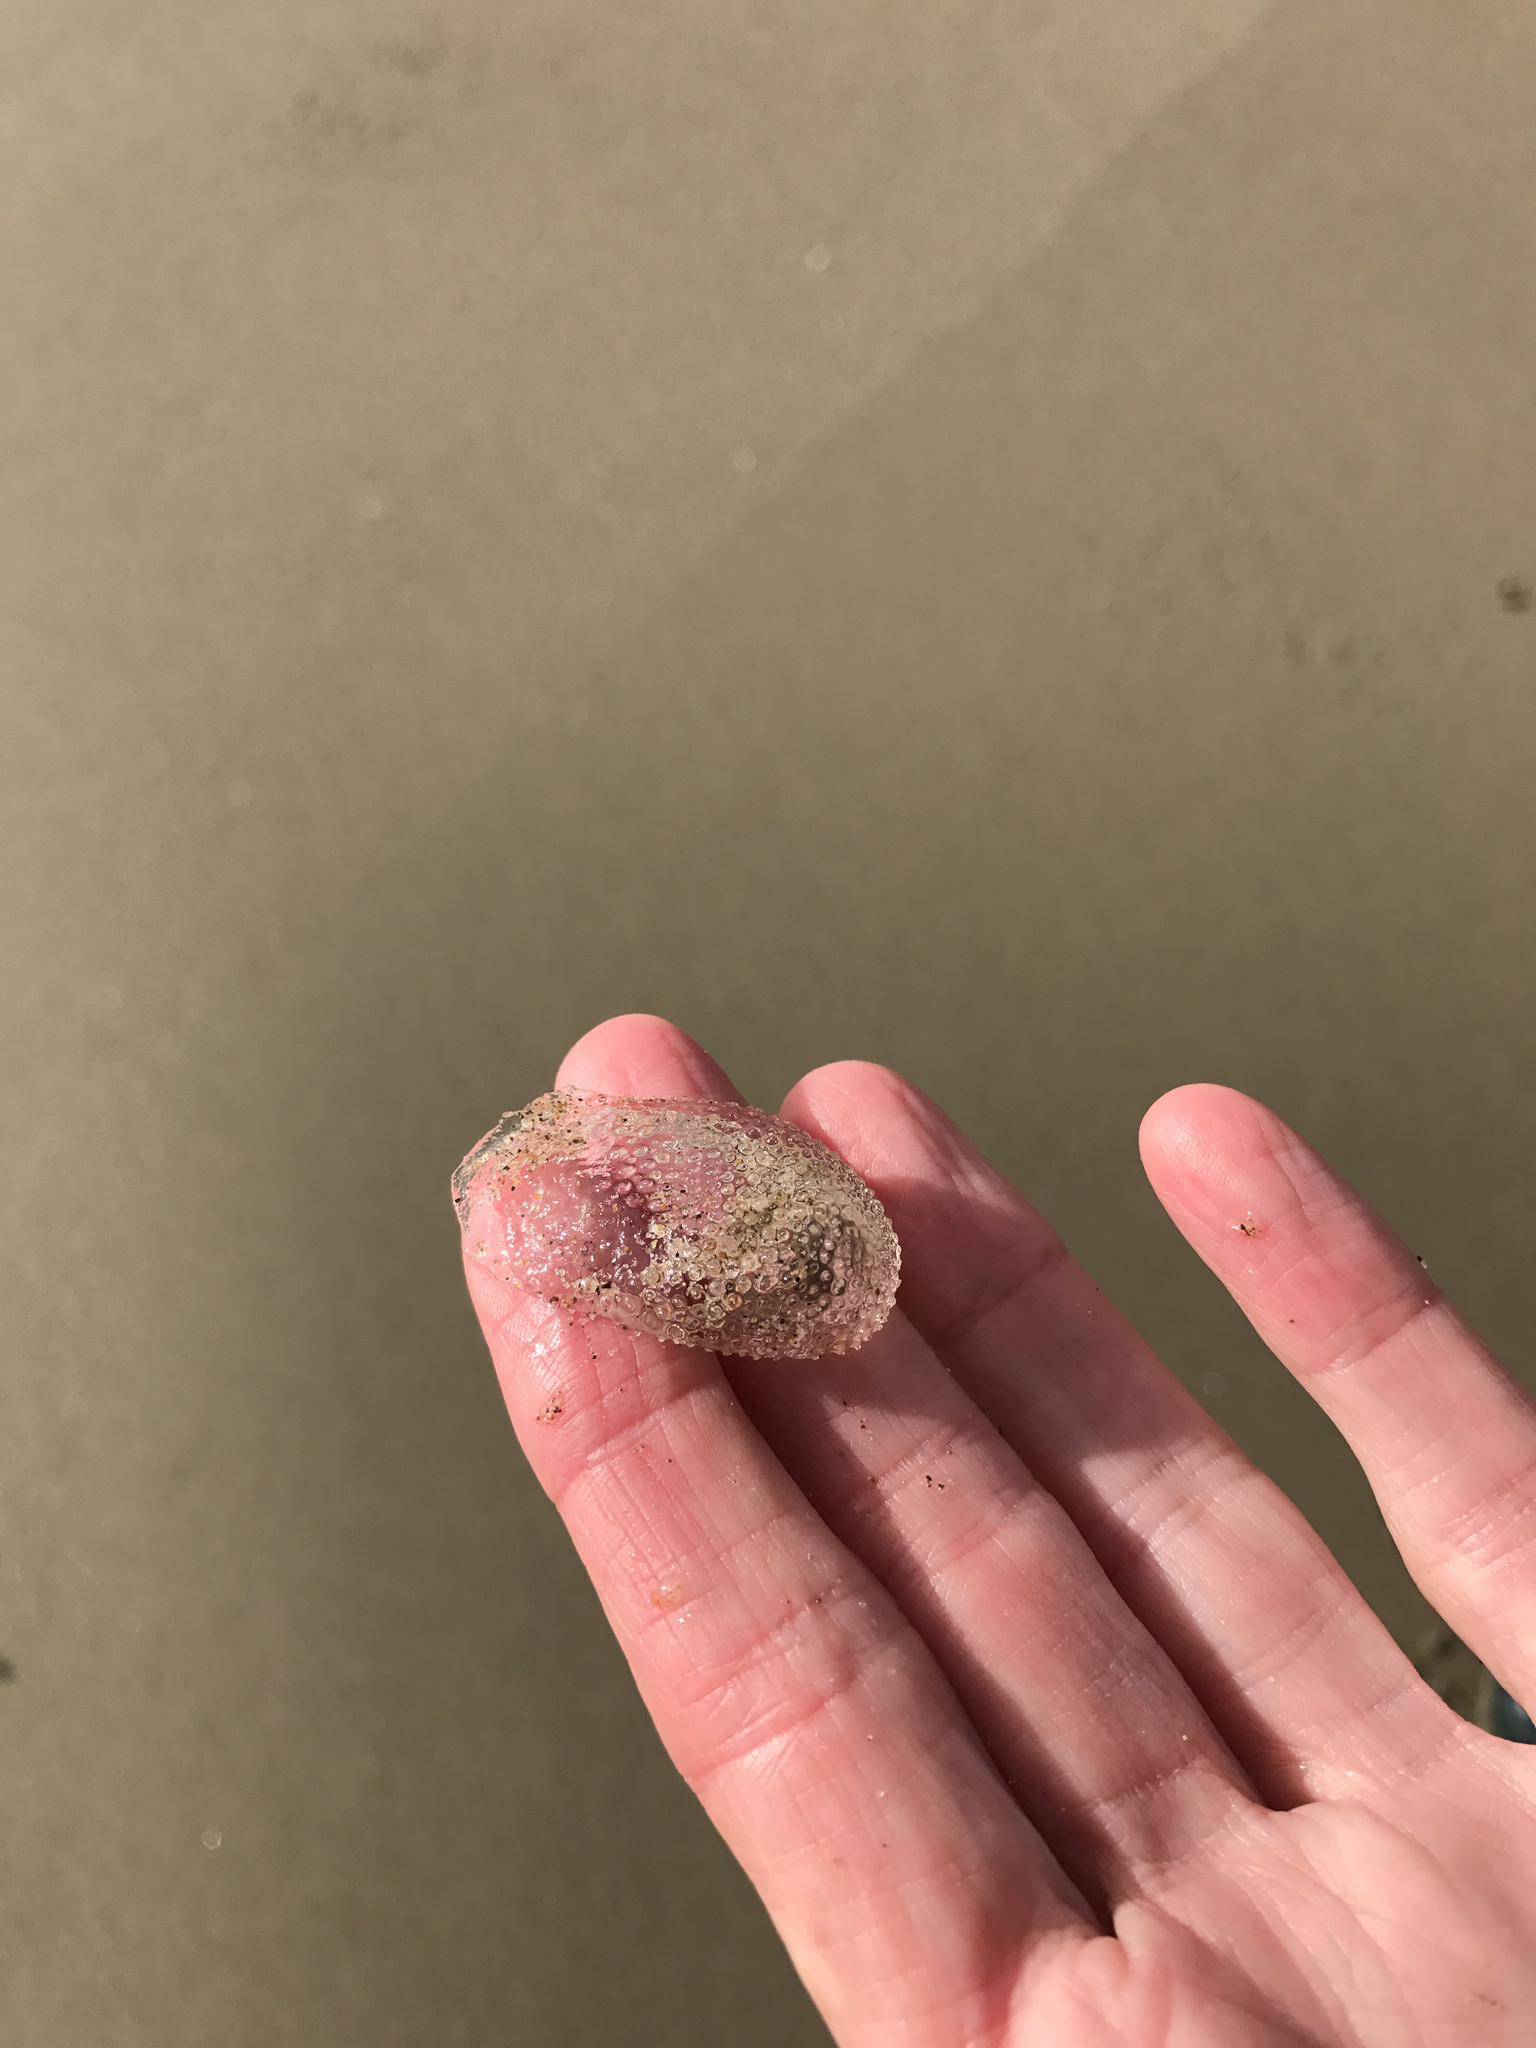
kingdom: Animalia
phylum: Mollusca
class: Gastropoda
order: Pteropoda
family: Cymbuliidae
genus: Corolla
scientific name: Corolla spectabilis
